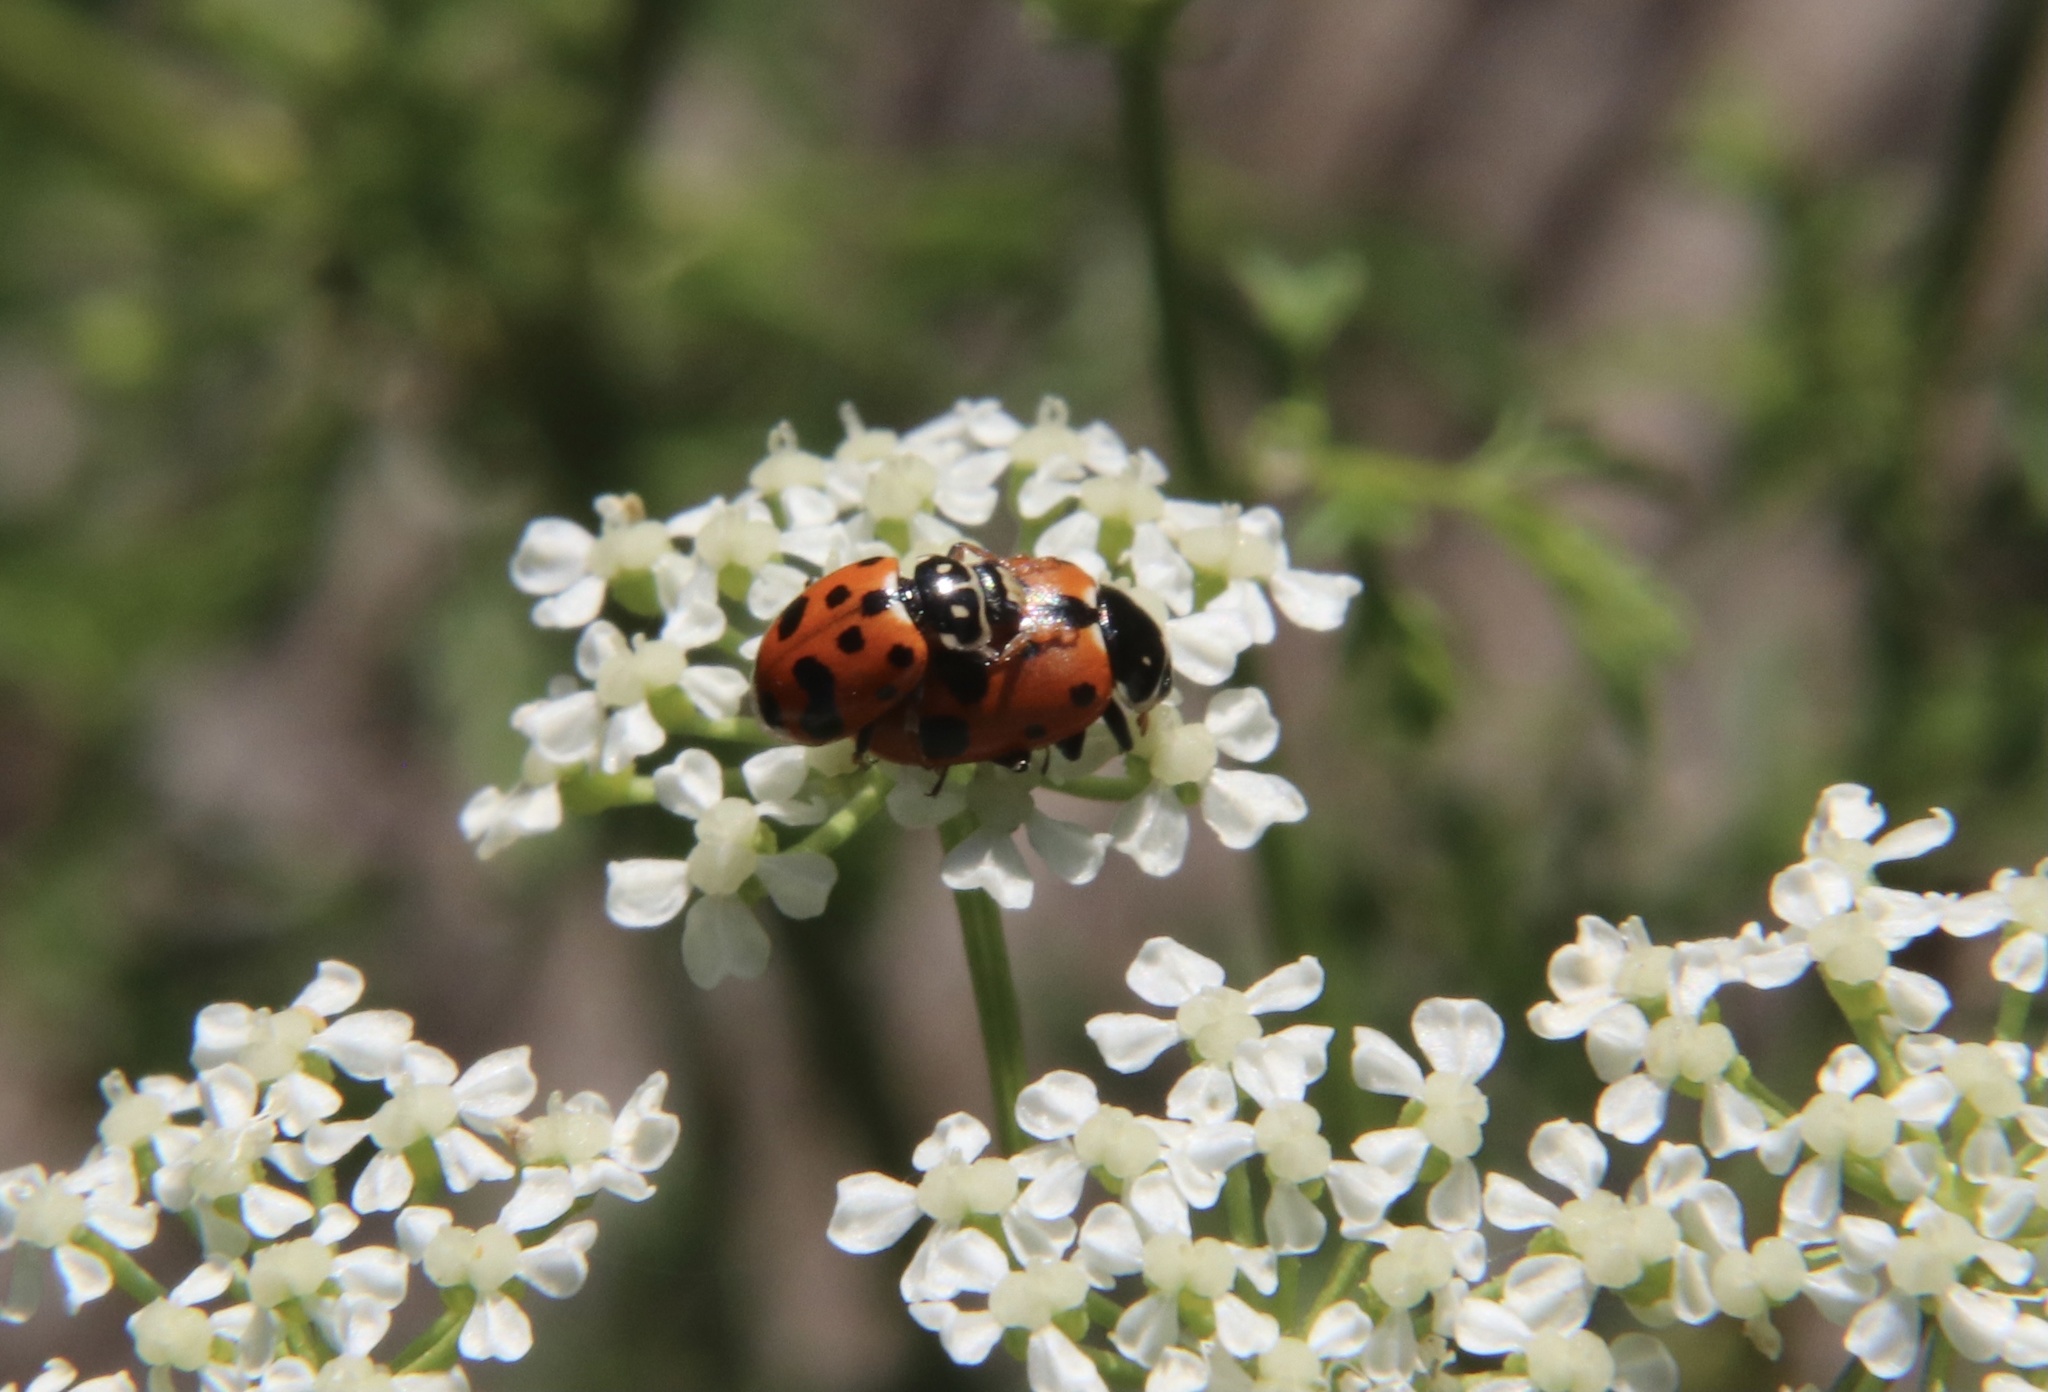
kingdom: Animalia
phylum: Arthropoda
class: Insecta
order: Coleoptera
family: Coccinellidae
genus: Hippodamia
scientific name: Hippodamia variegata
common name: Ladybird beetle
